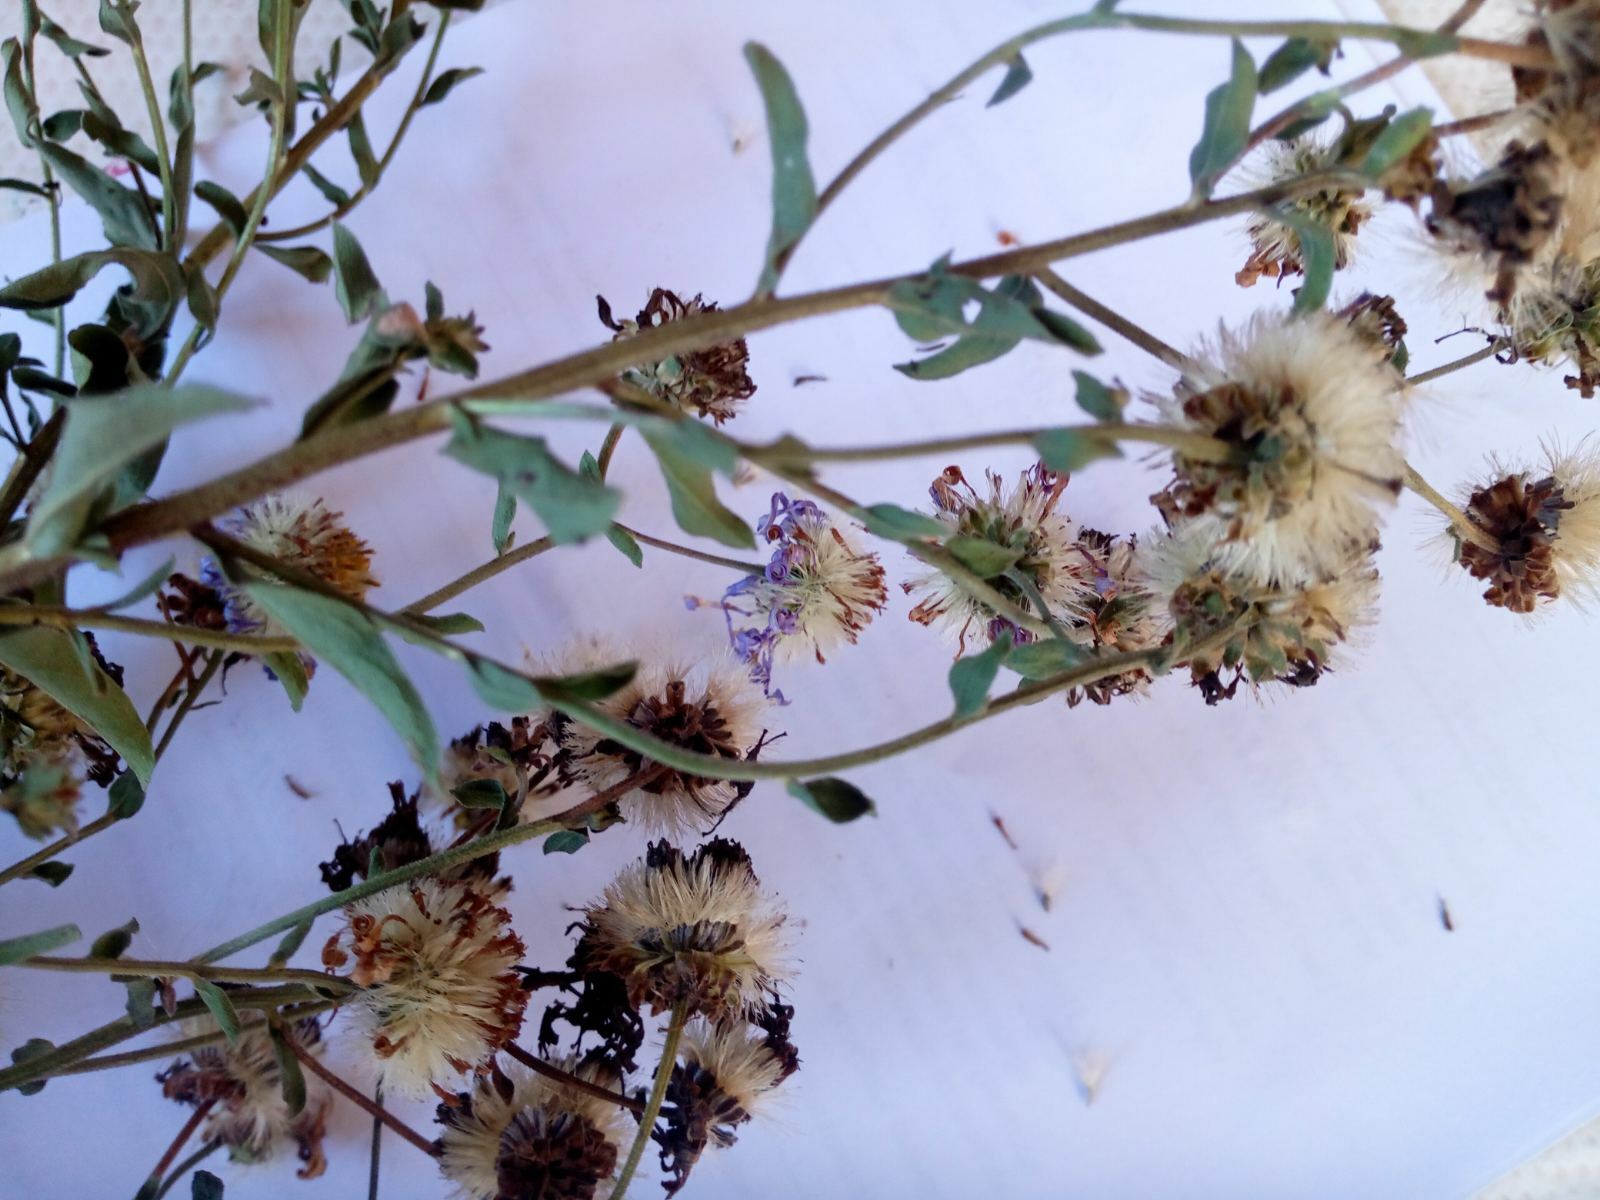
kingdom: Plantae
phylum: Tracheophyta
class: Magnoliopsida
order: Asterales
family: Asteraceae
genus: Aster
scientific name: Aster amellus
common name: European michaelmas daisy
